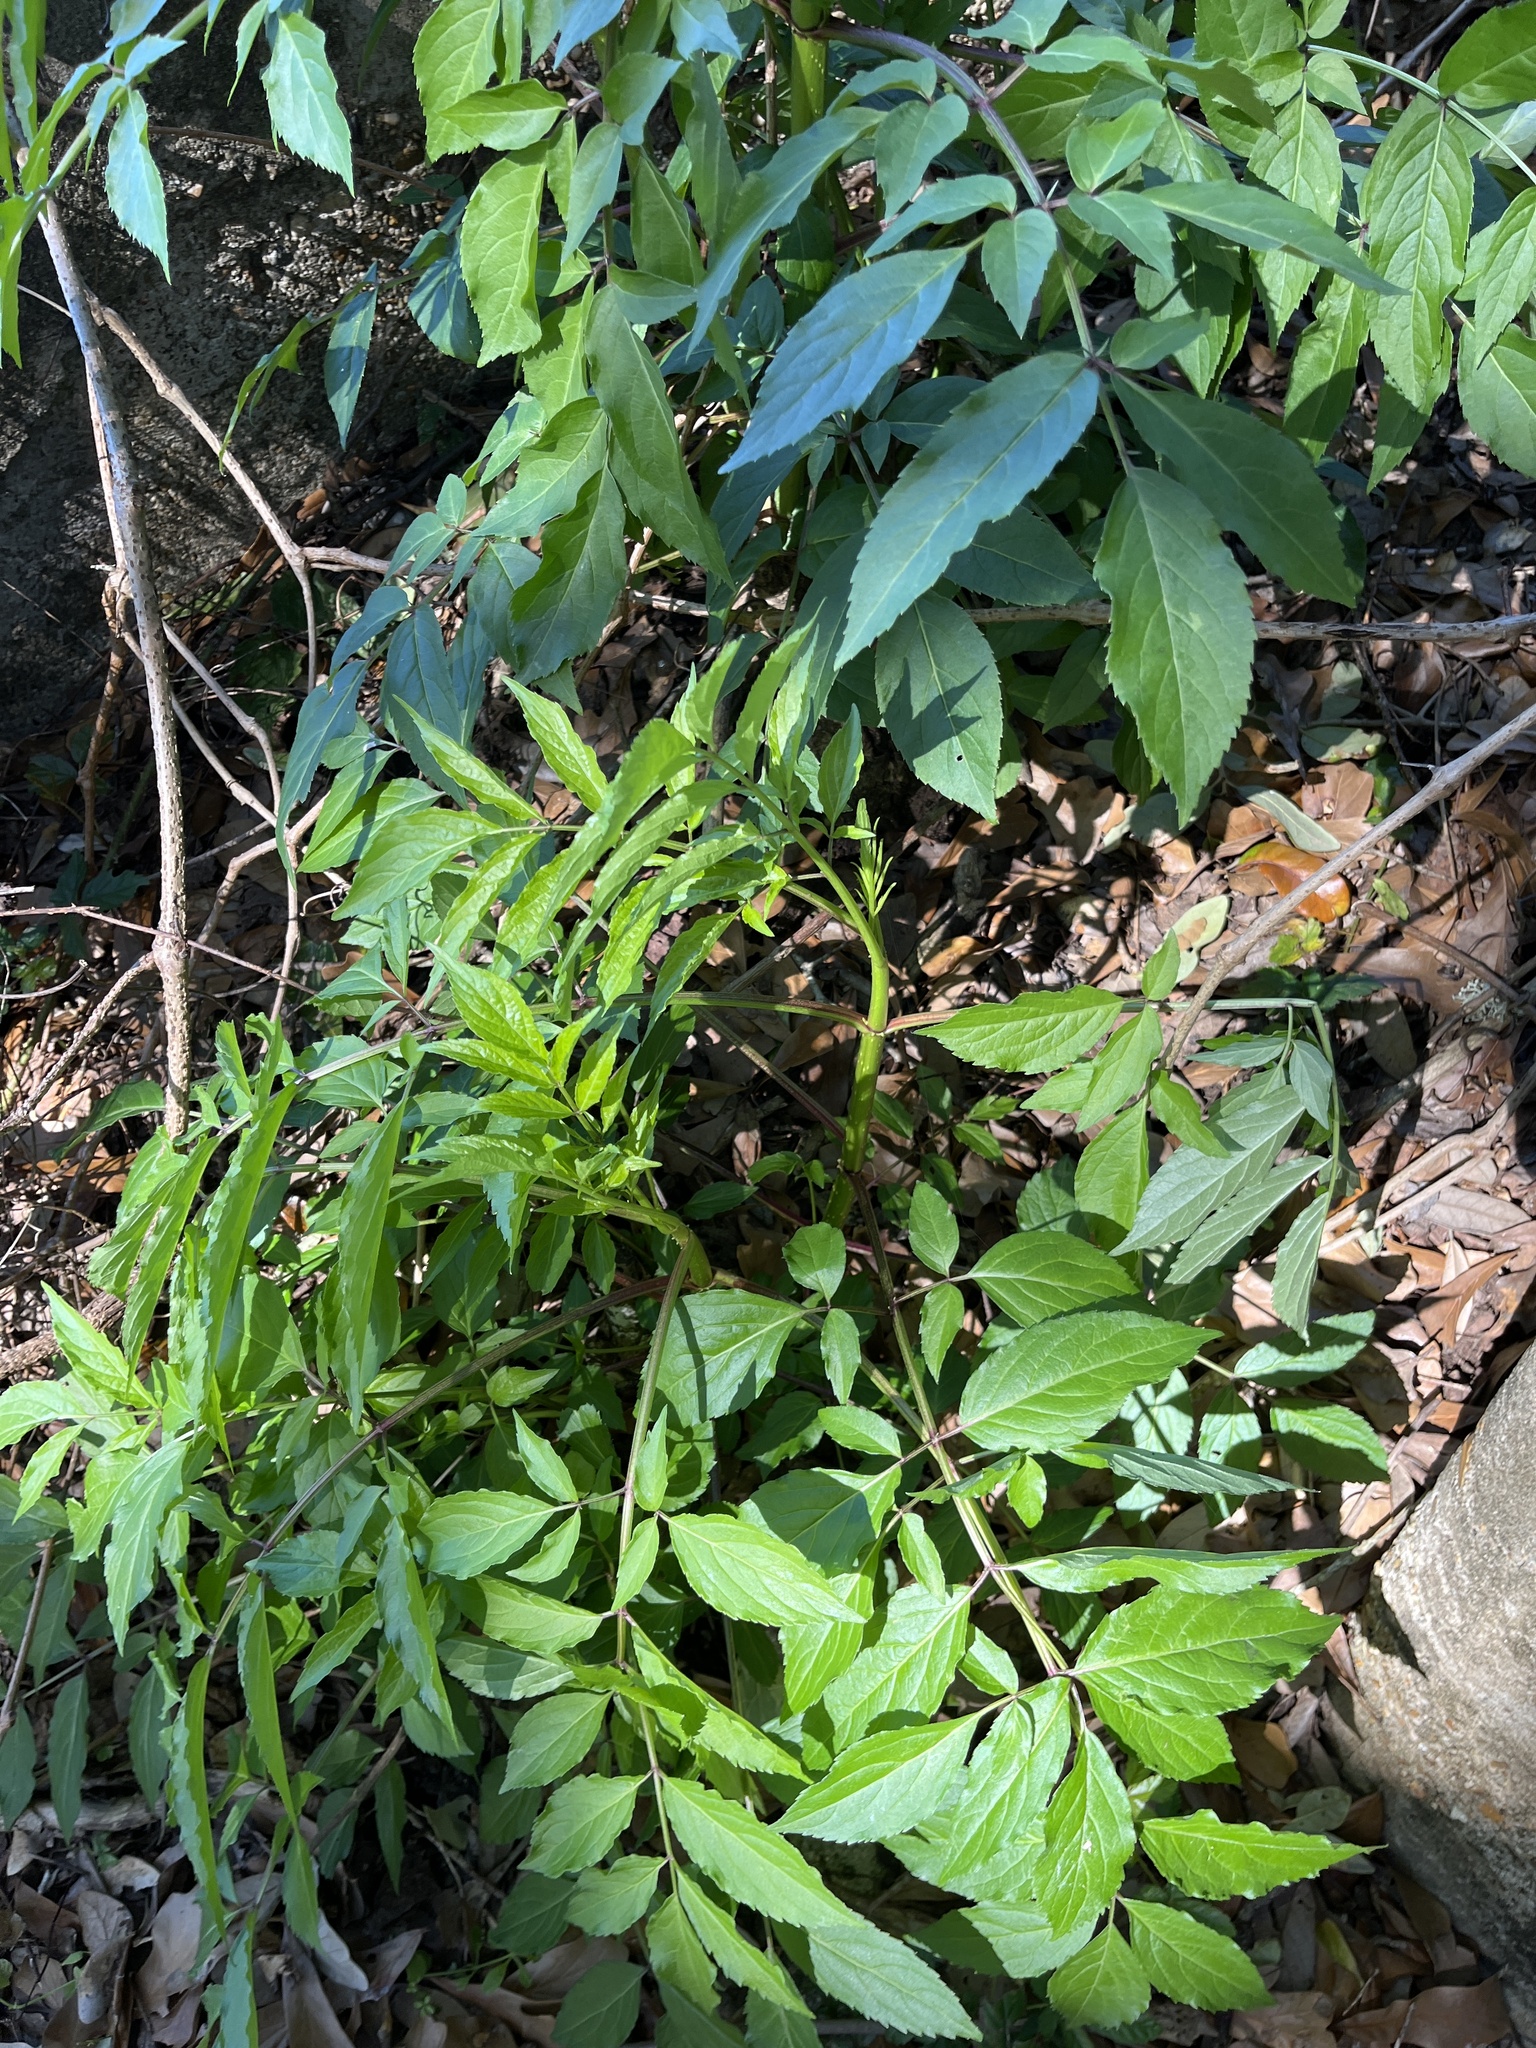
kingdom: Plantae
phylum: Tracheophyta
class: Magnoliopsida
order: Dipsacales
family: Viburnaceae
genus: Sambucus
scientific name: Sambucus canadensis
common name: American elder
